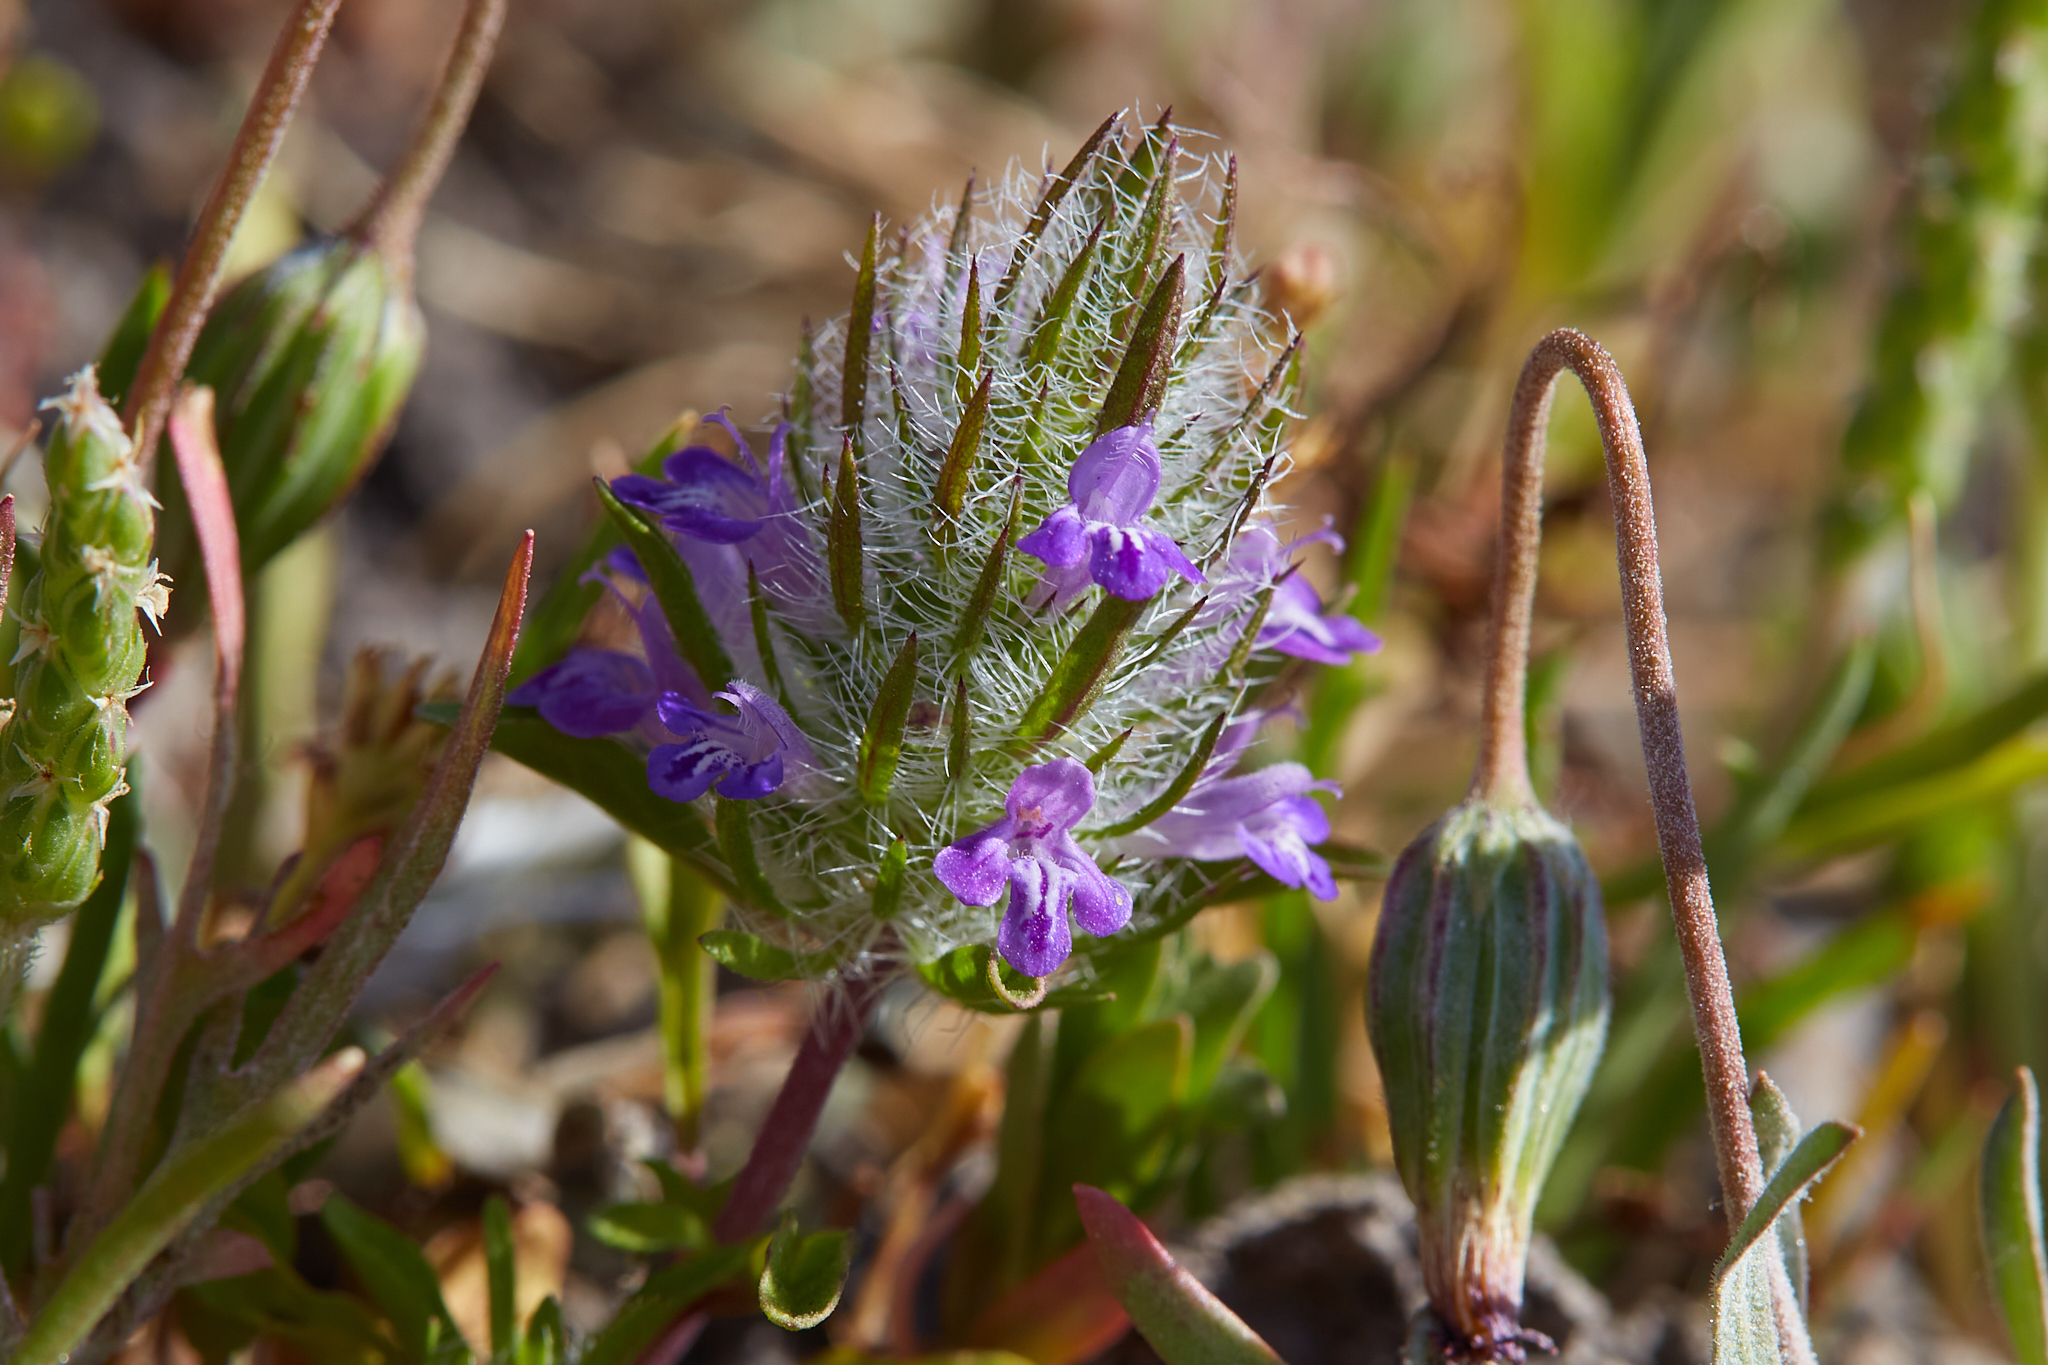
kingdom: Plantae
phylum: Tracheophyta
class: Magnoliopsida
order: Lamiales
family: Lamiaceae
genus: Pogogyne
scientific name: Pogogyne douglasii
